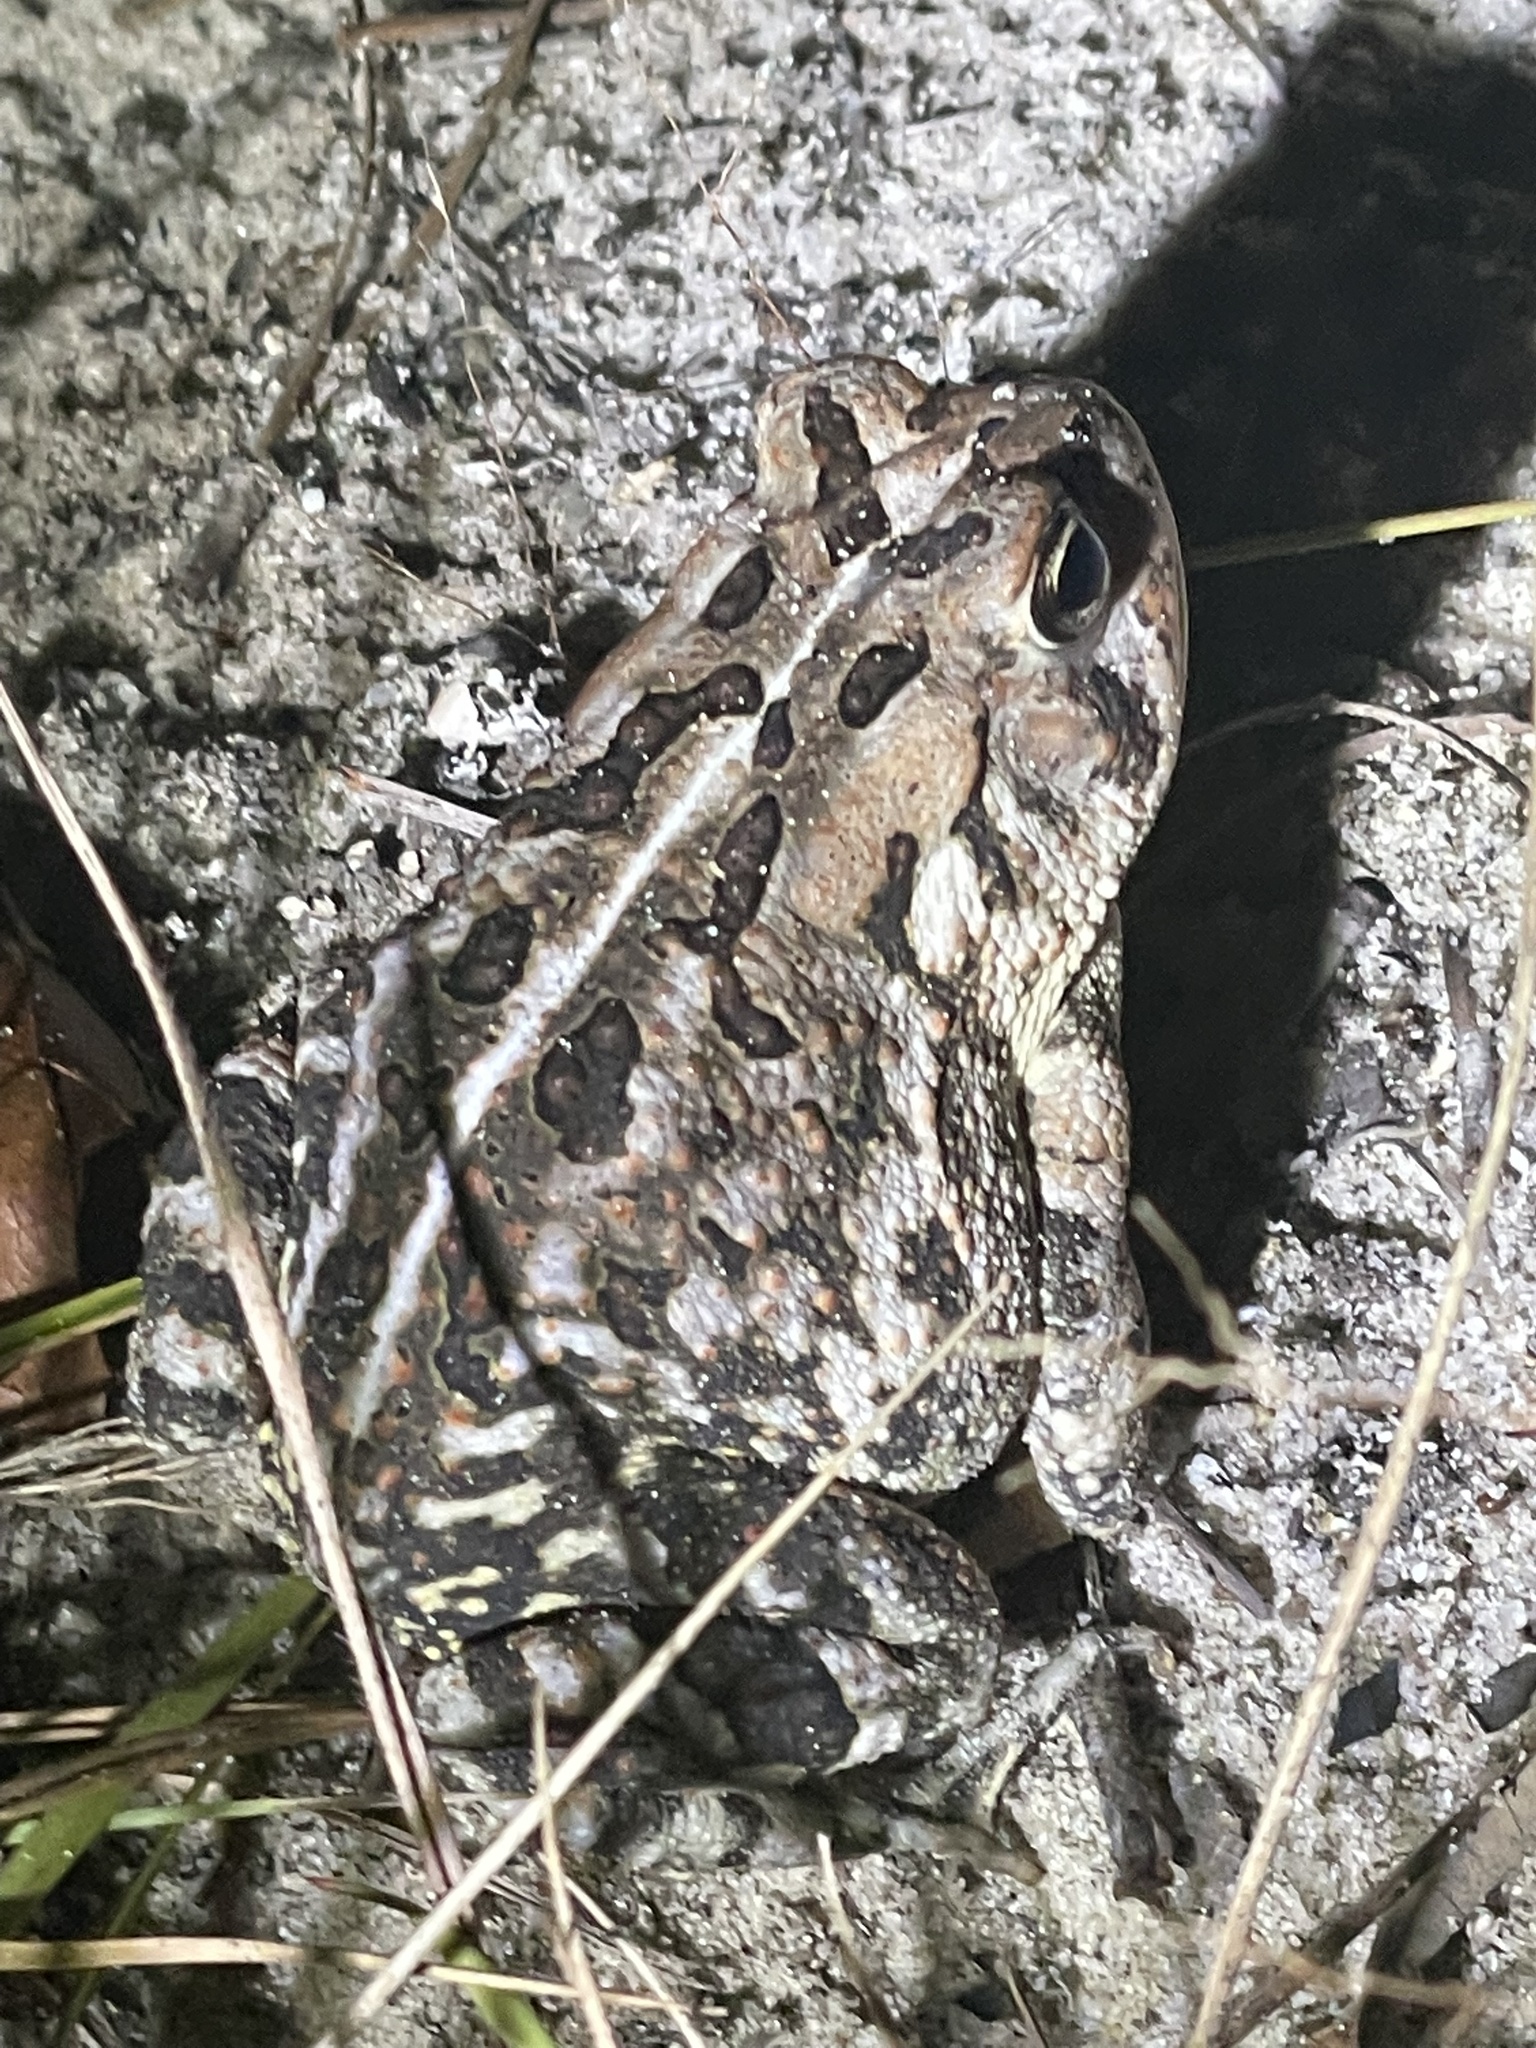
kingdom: Animalia
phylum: Chordata
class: Amphibia
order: Anura
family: Bufonidae
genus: Anaxyrus
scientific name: Anaxyrus fowleri
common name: Fowler's toad
